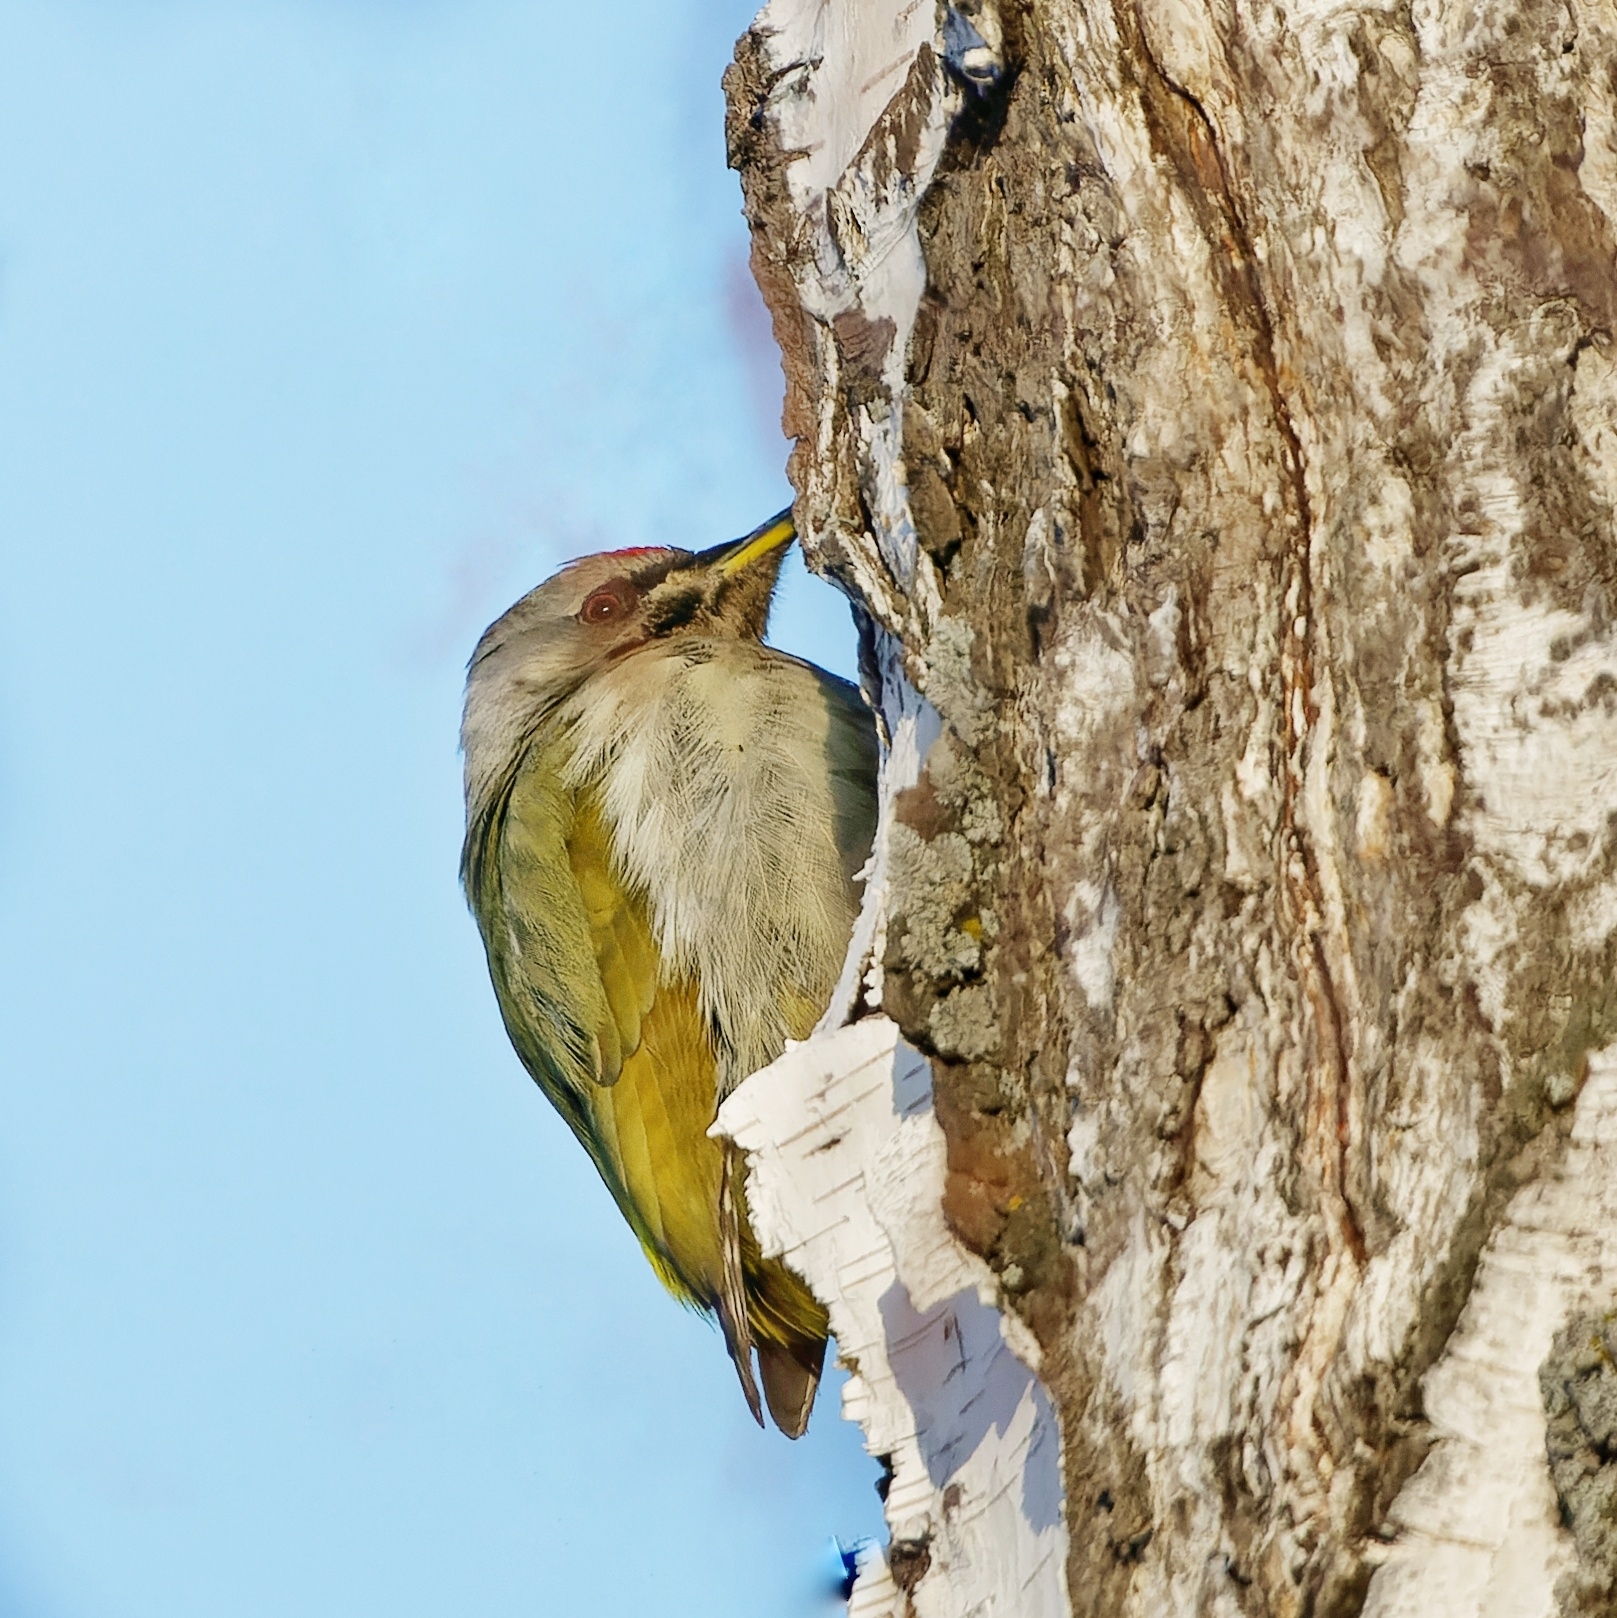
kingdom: Animalia
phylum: Chordata
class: Aves
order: Piciformes
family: Picidae
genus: Picus
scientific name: Picus canus
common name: Grey-headed woodpecker
